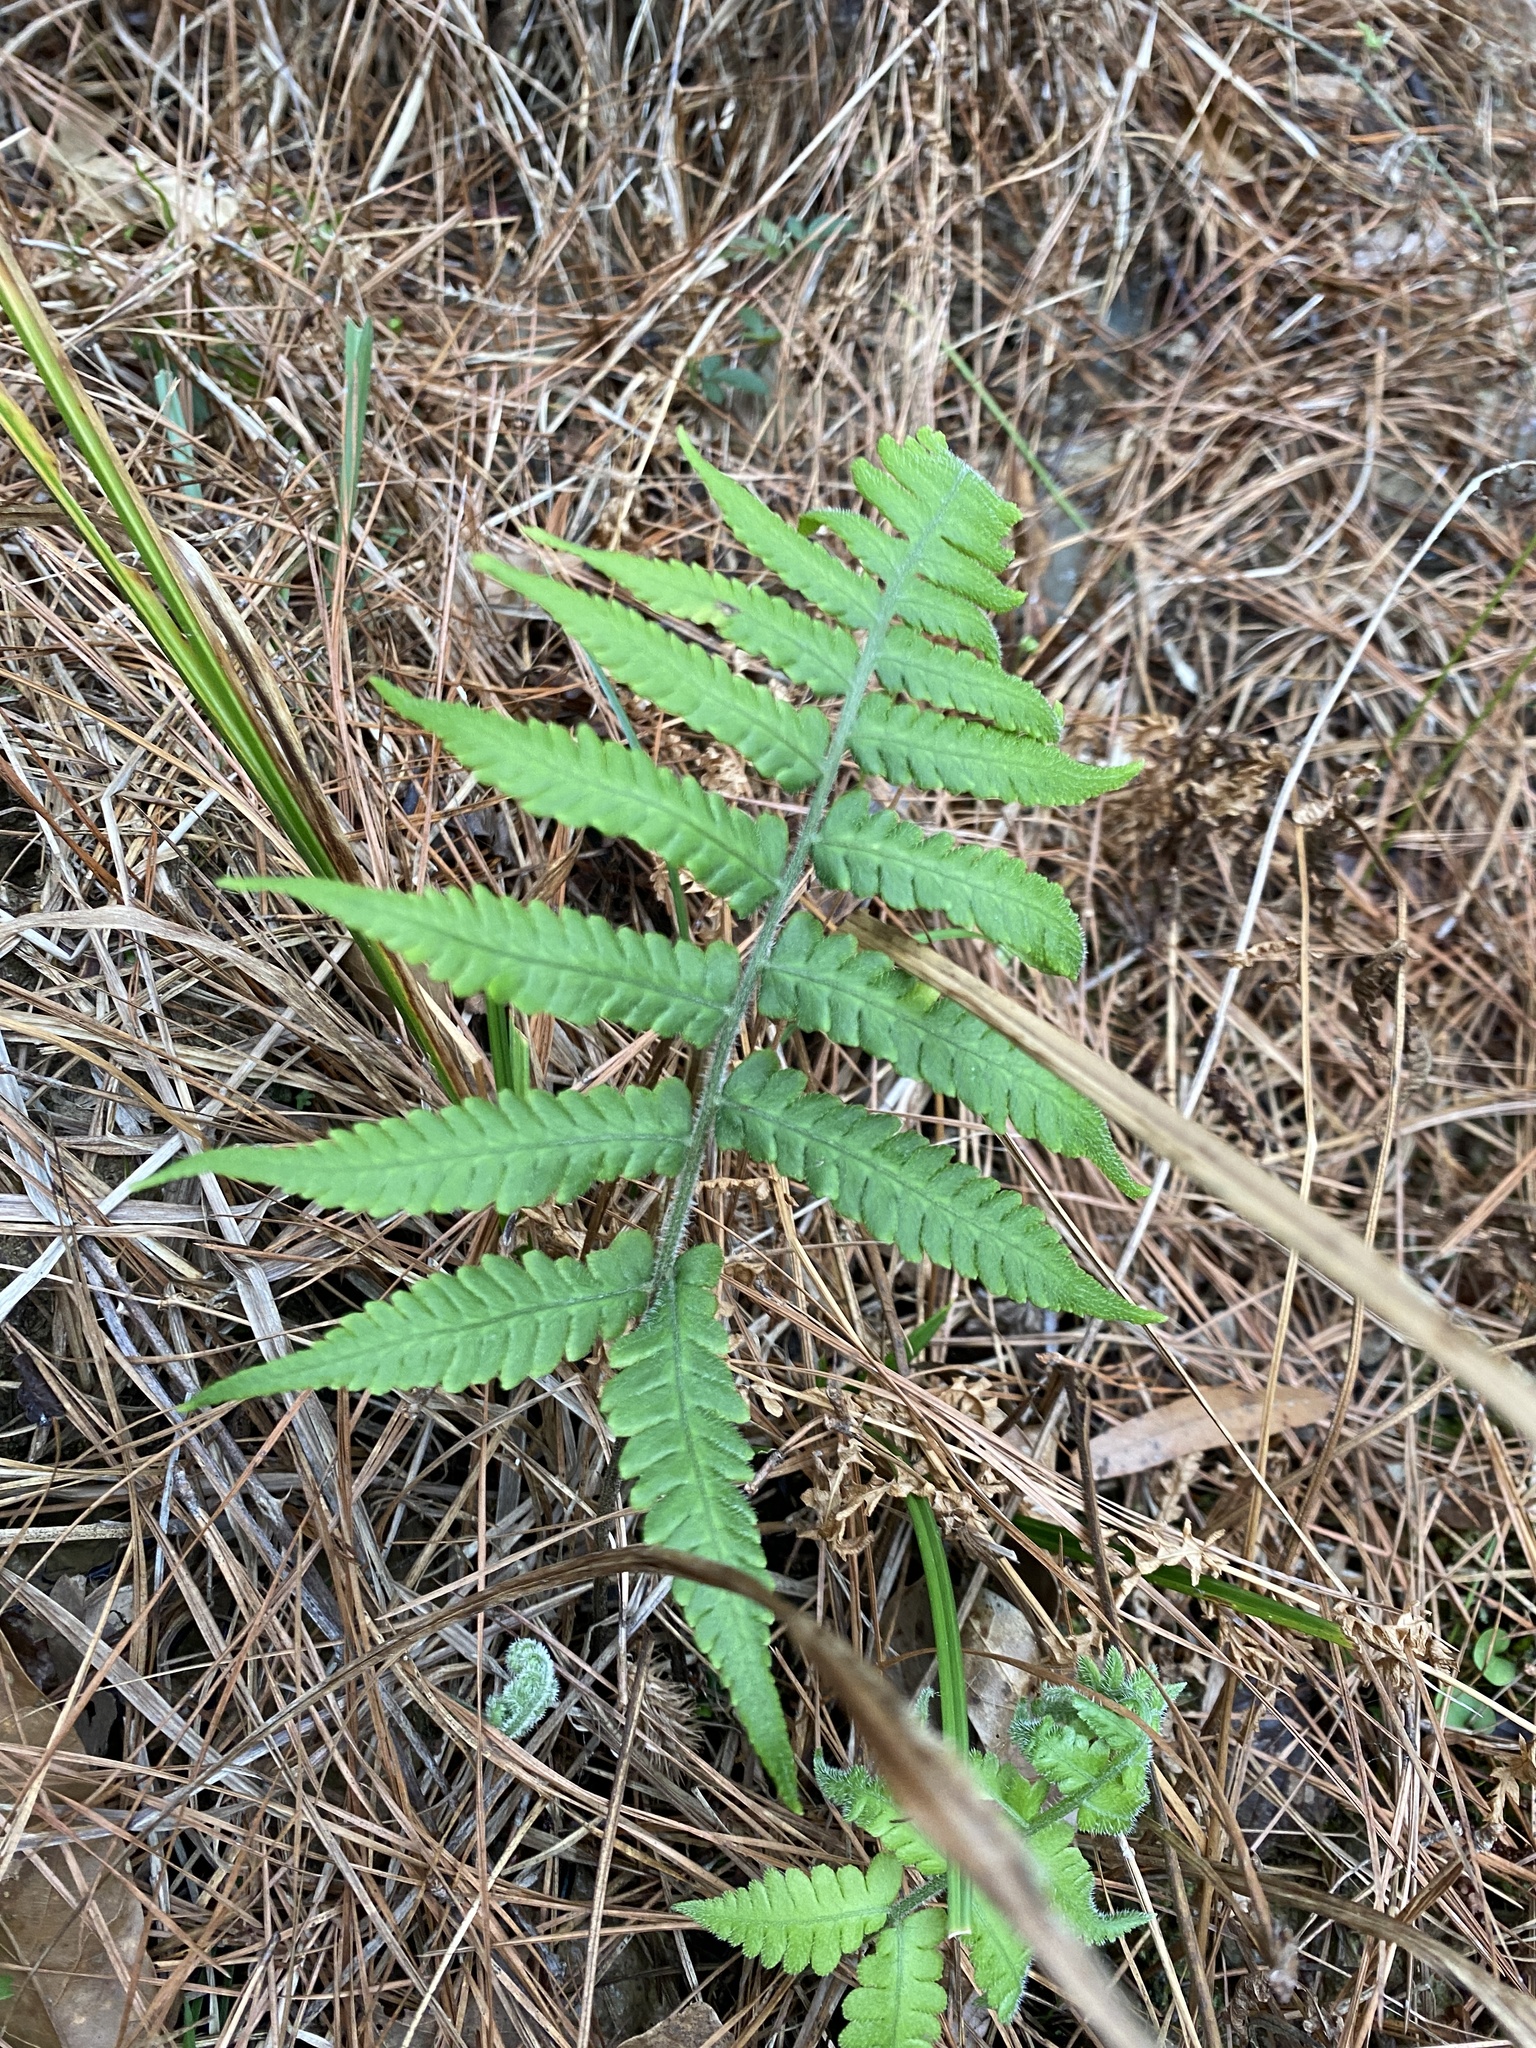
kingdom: Plantae
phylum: Tracheophyta
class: Polypodiopsida
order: Polypodiales
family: Athyriaceae
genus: Deparia
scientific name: Deparia petersenii
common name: Japanese false spleenwort
